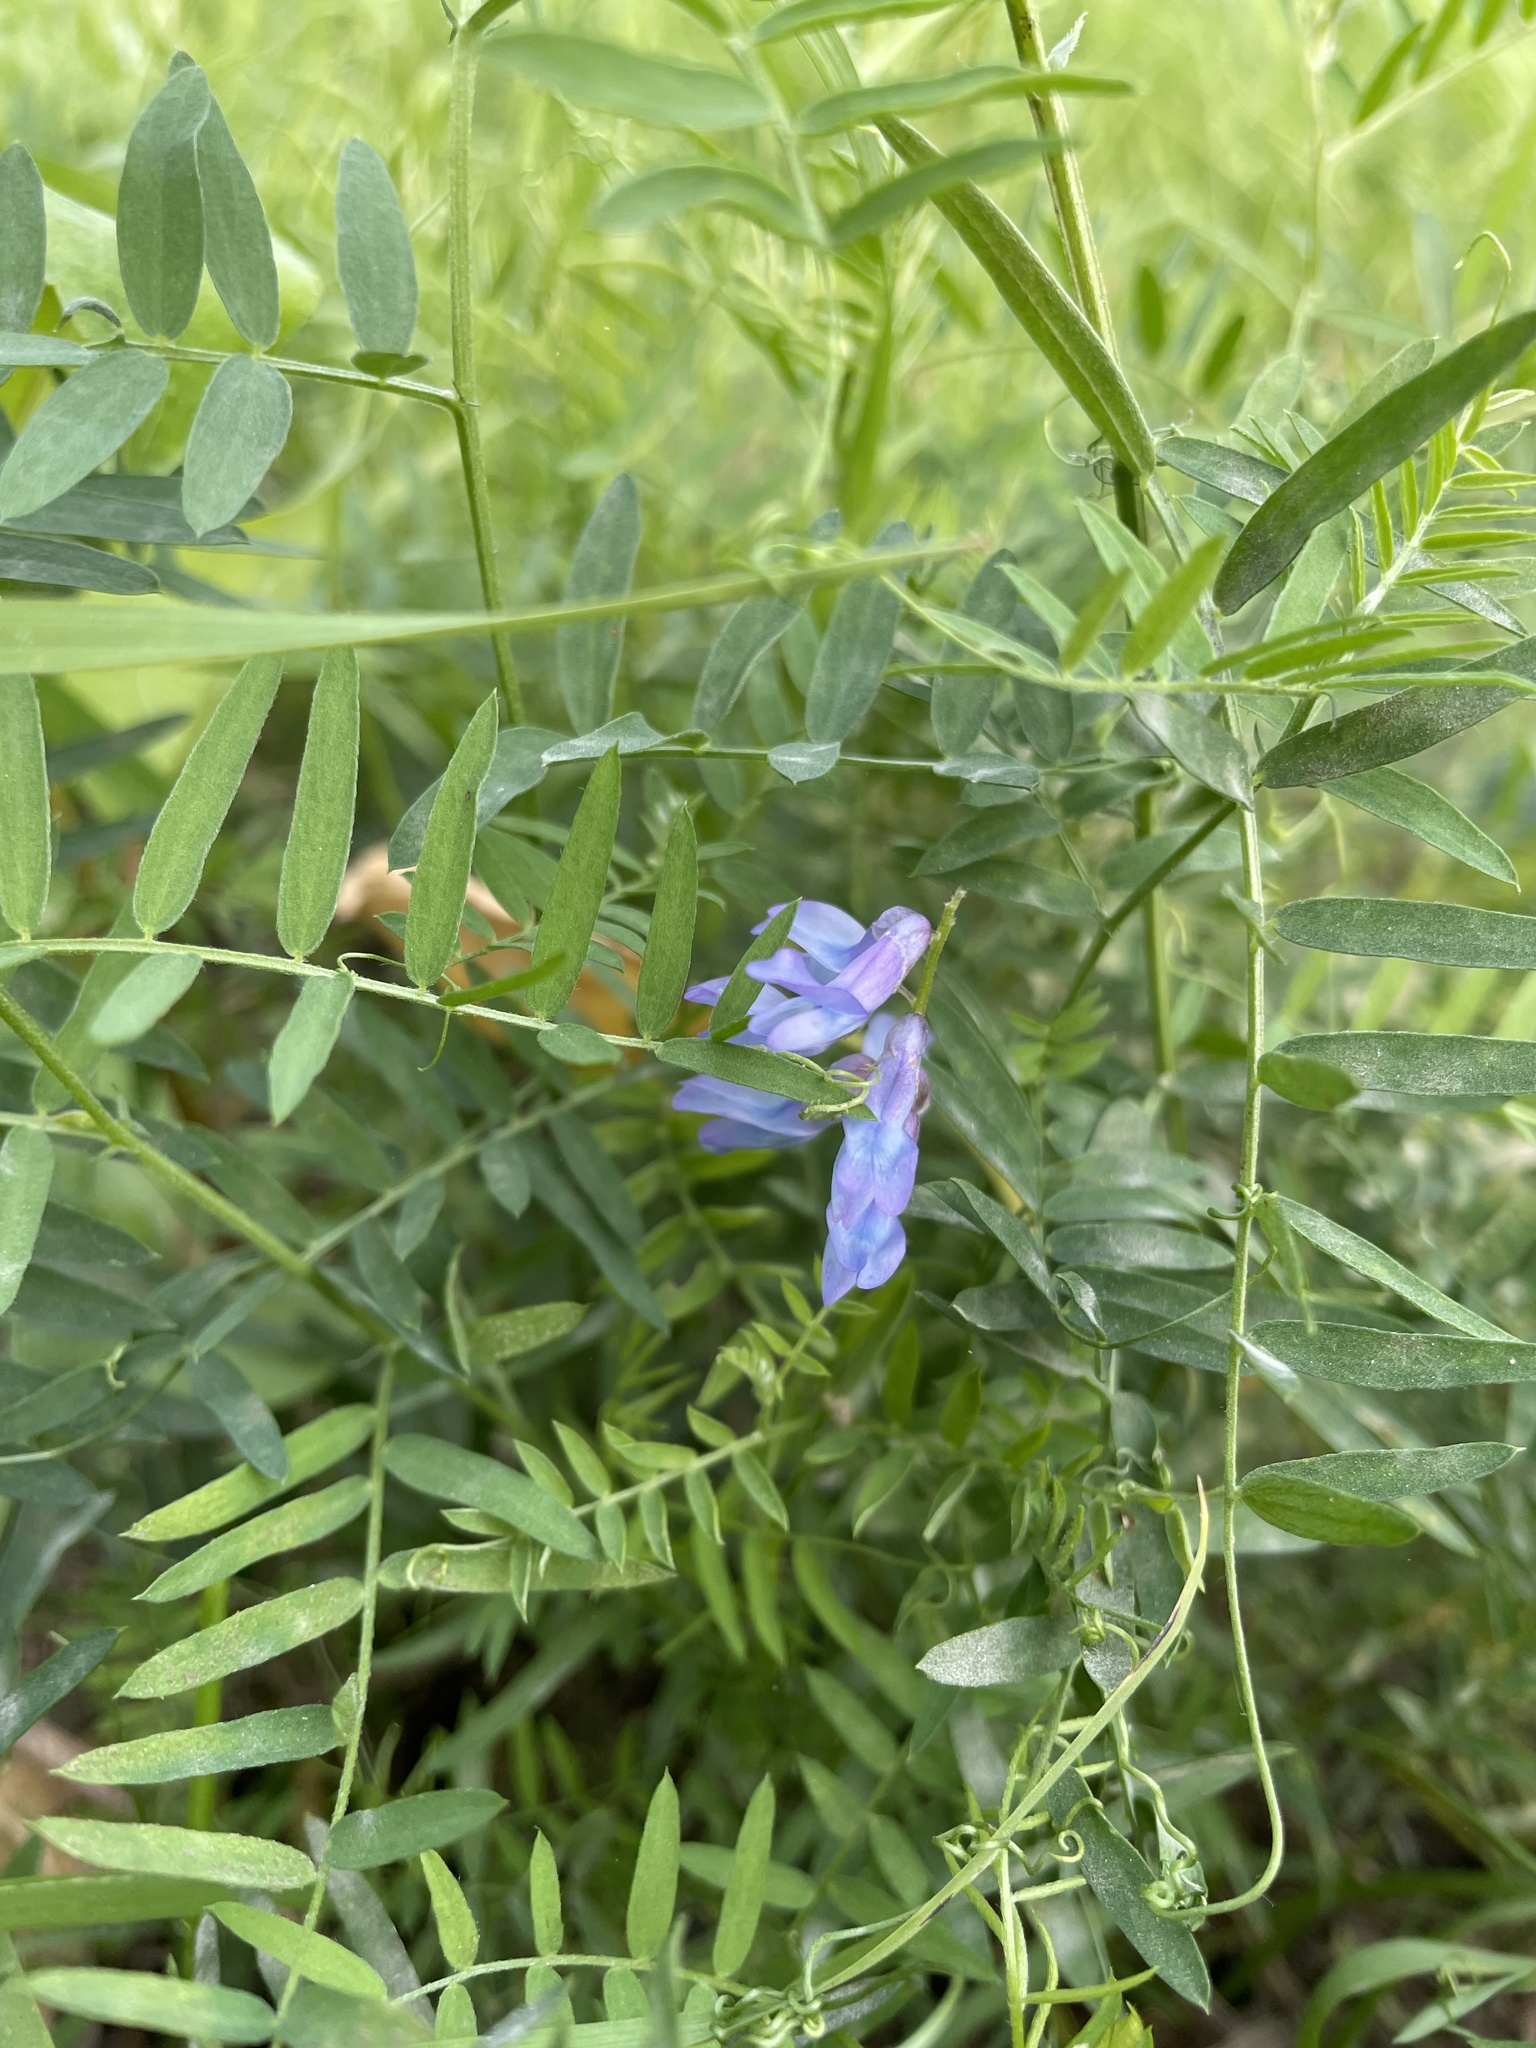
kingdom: Plantae
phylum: Tracheophyta
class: Magnoliopsida
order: Fabales
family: Fabaceae
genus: Vicia
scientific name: Vicia cracca
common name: Bird vetch
